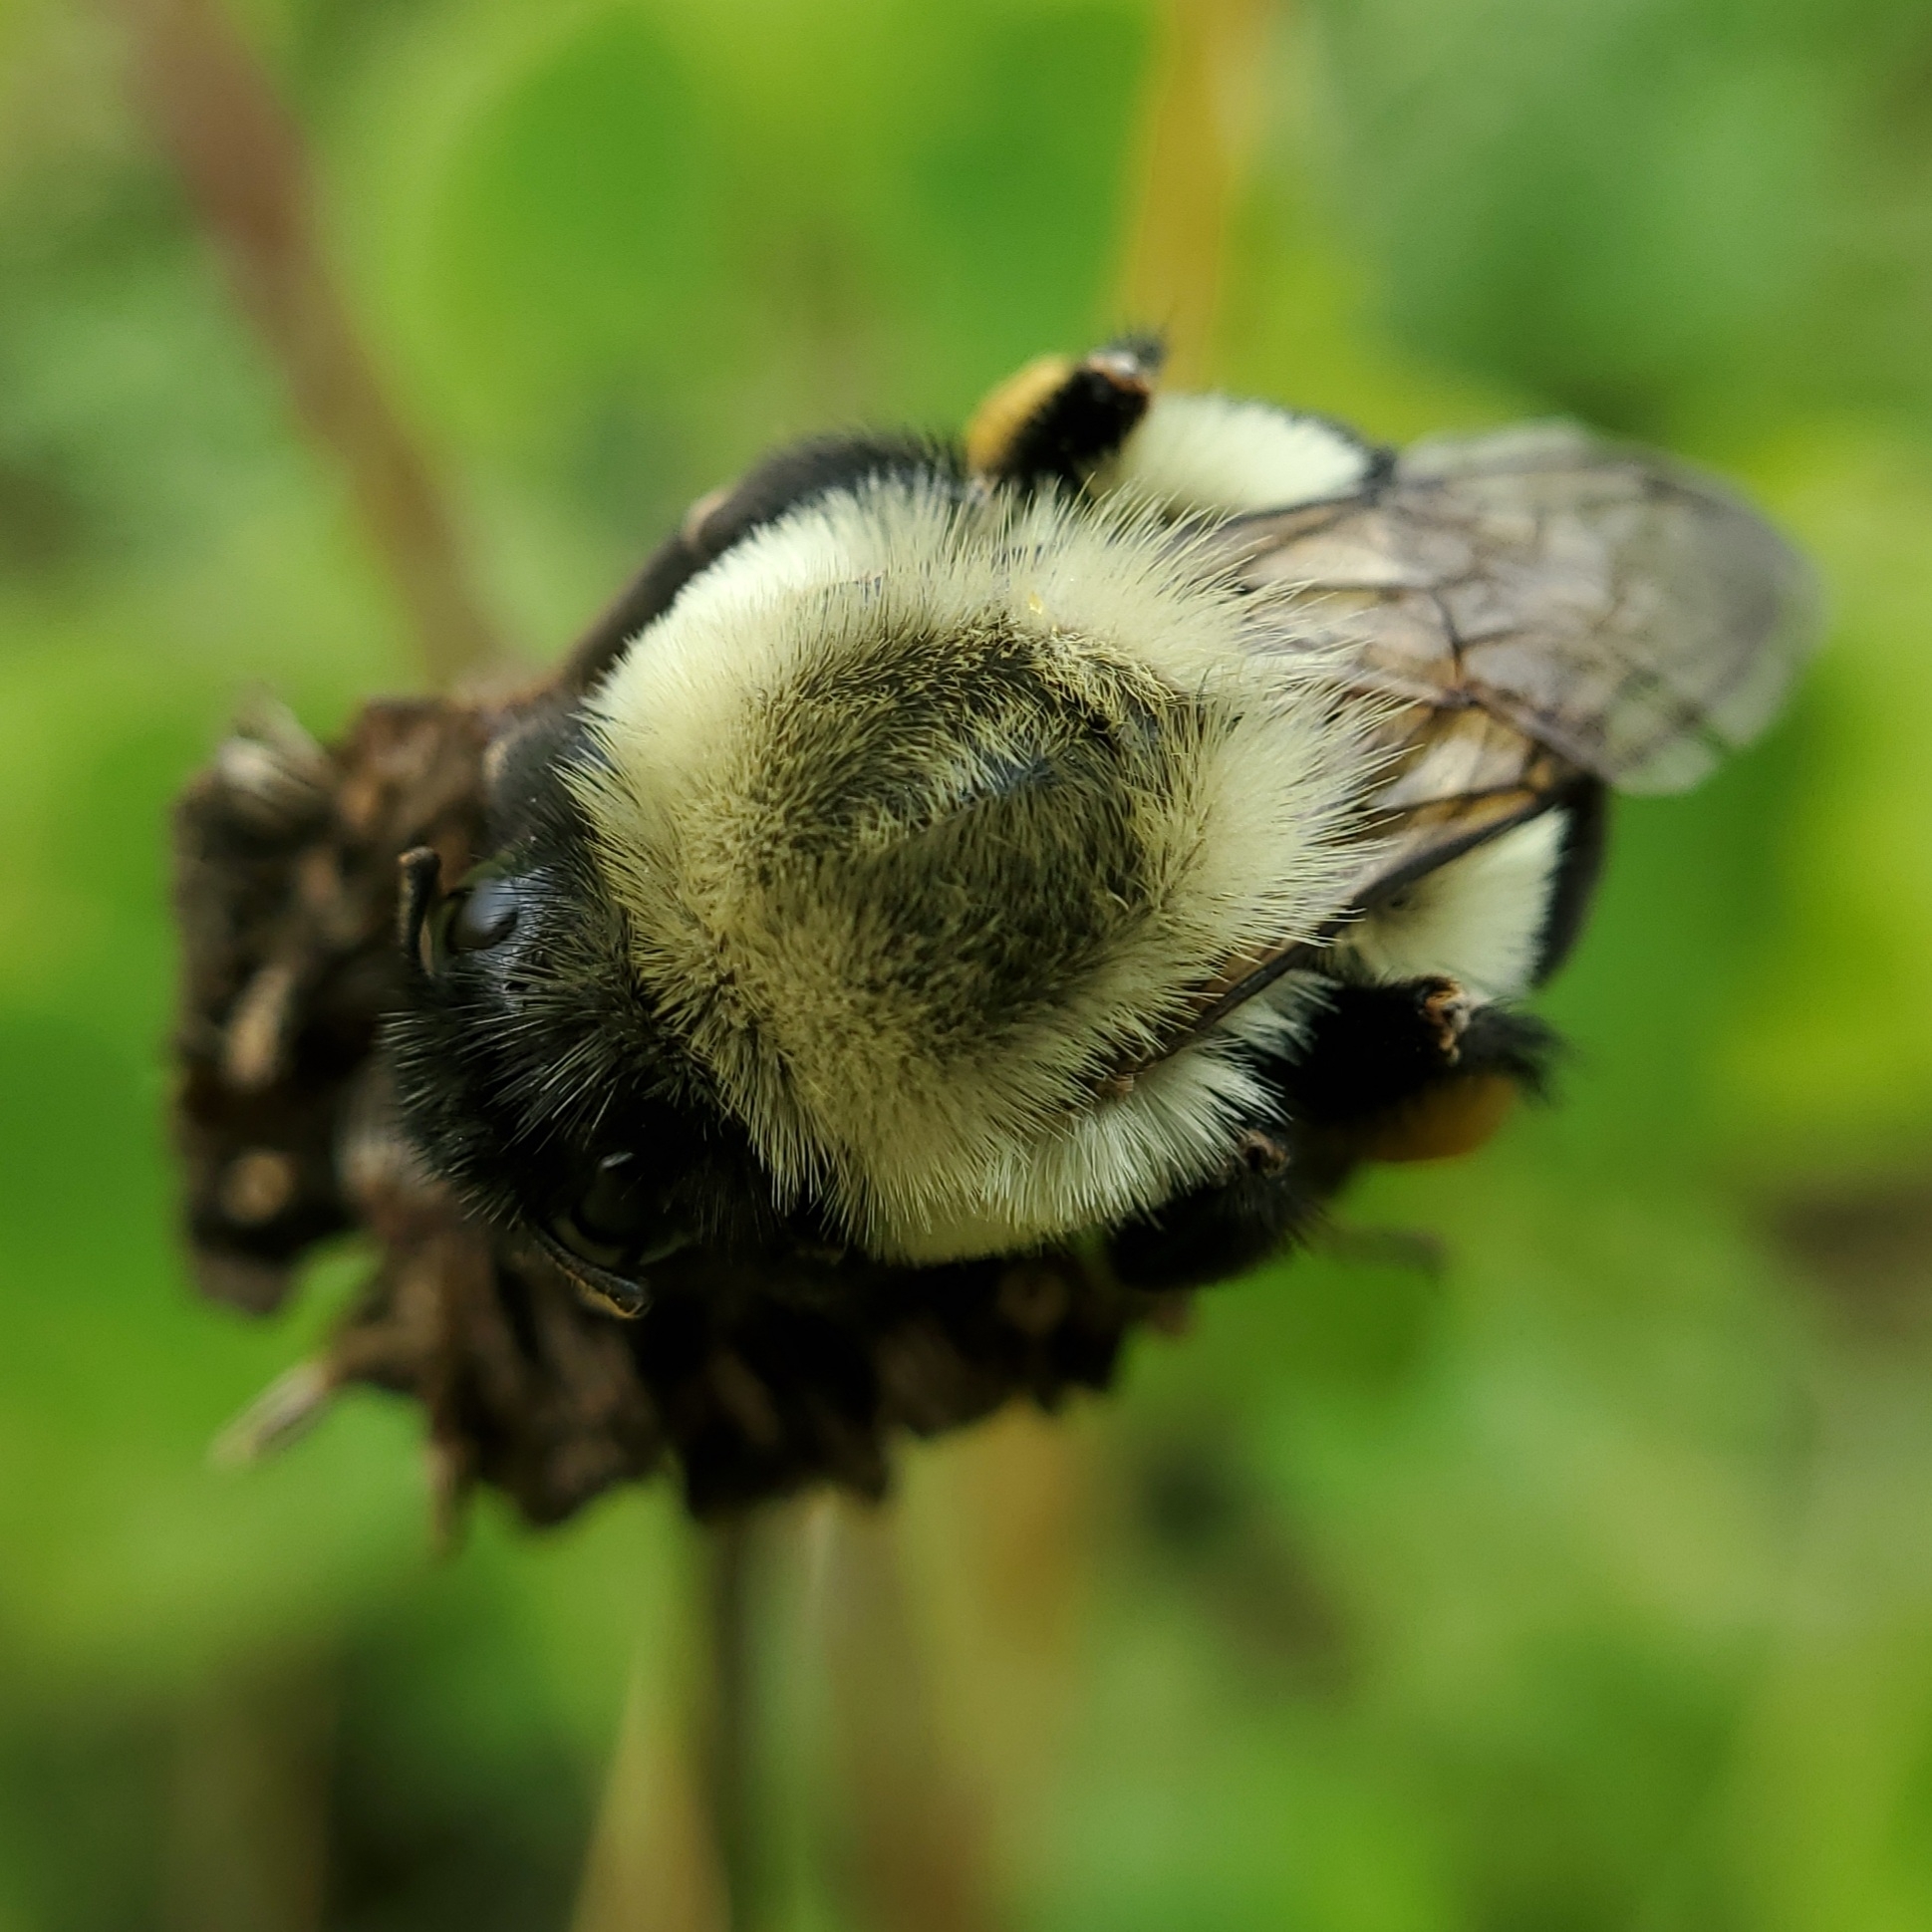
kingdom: Animalia
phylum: Arthropoda
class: Insecta
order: Hymenoptera
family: Apidae
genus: Bombus
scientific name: Bombus impatiens
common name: Common eastern bumble bee
